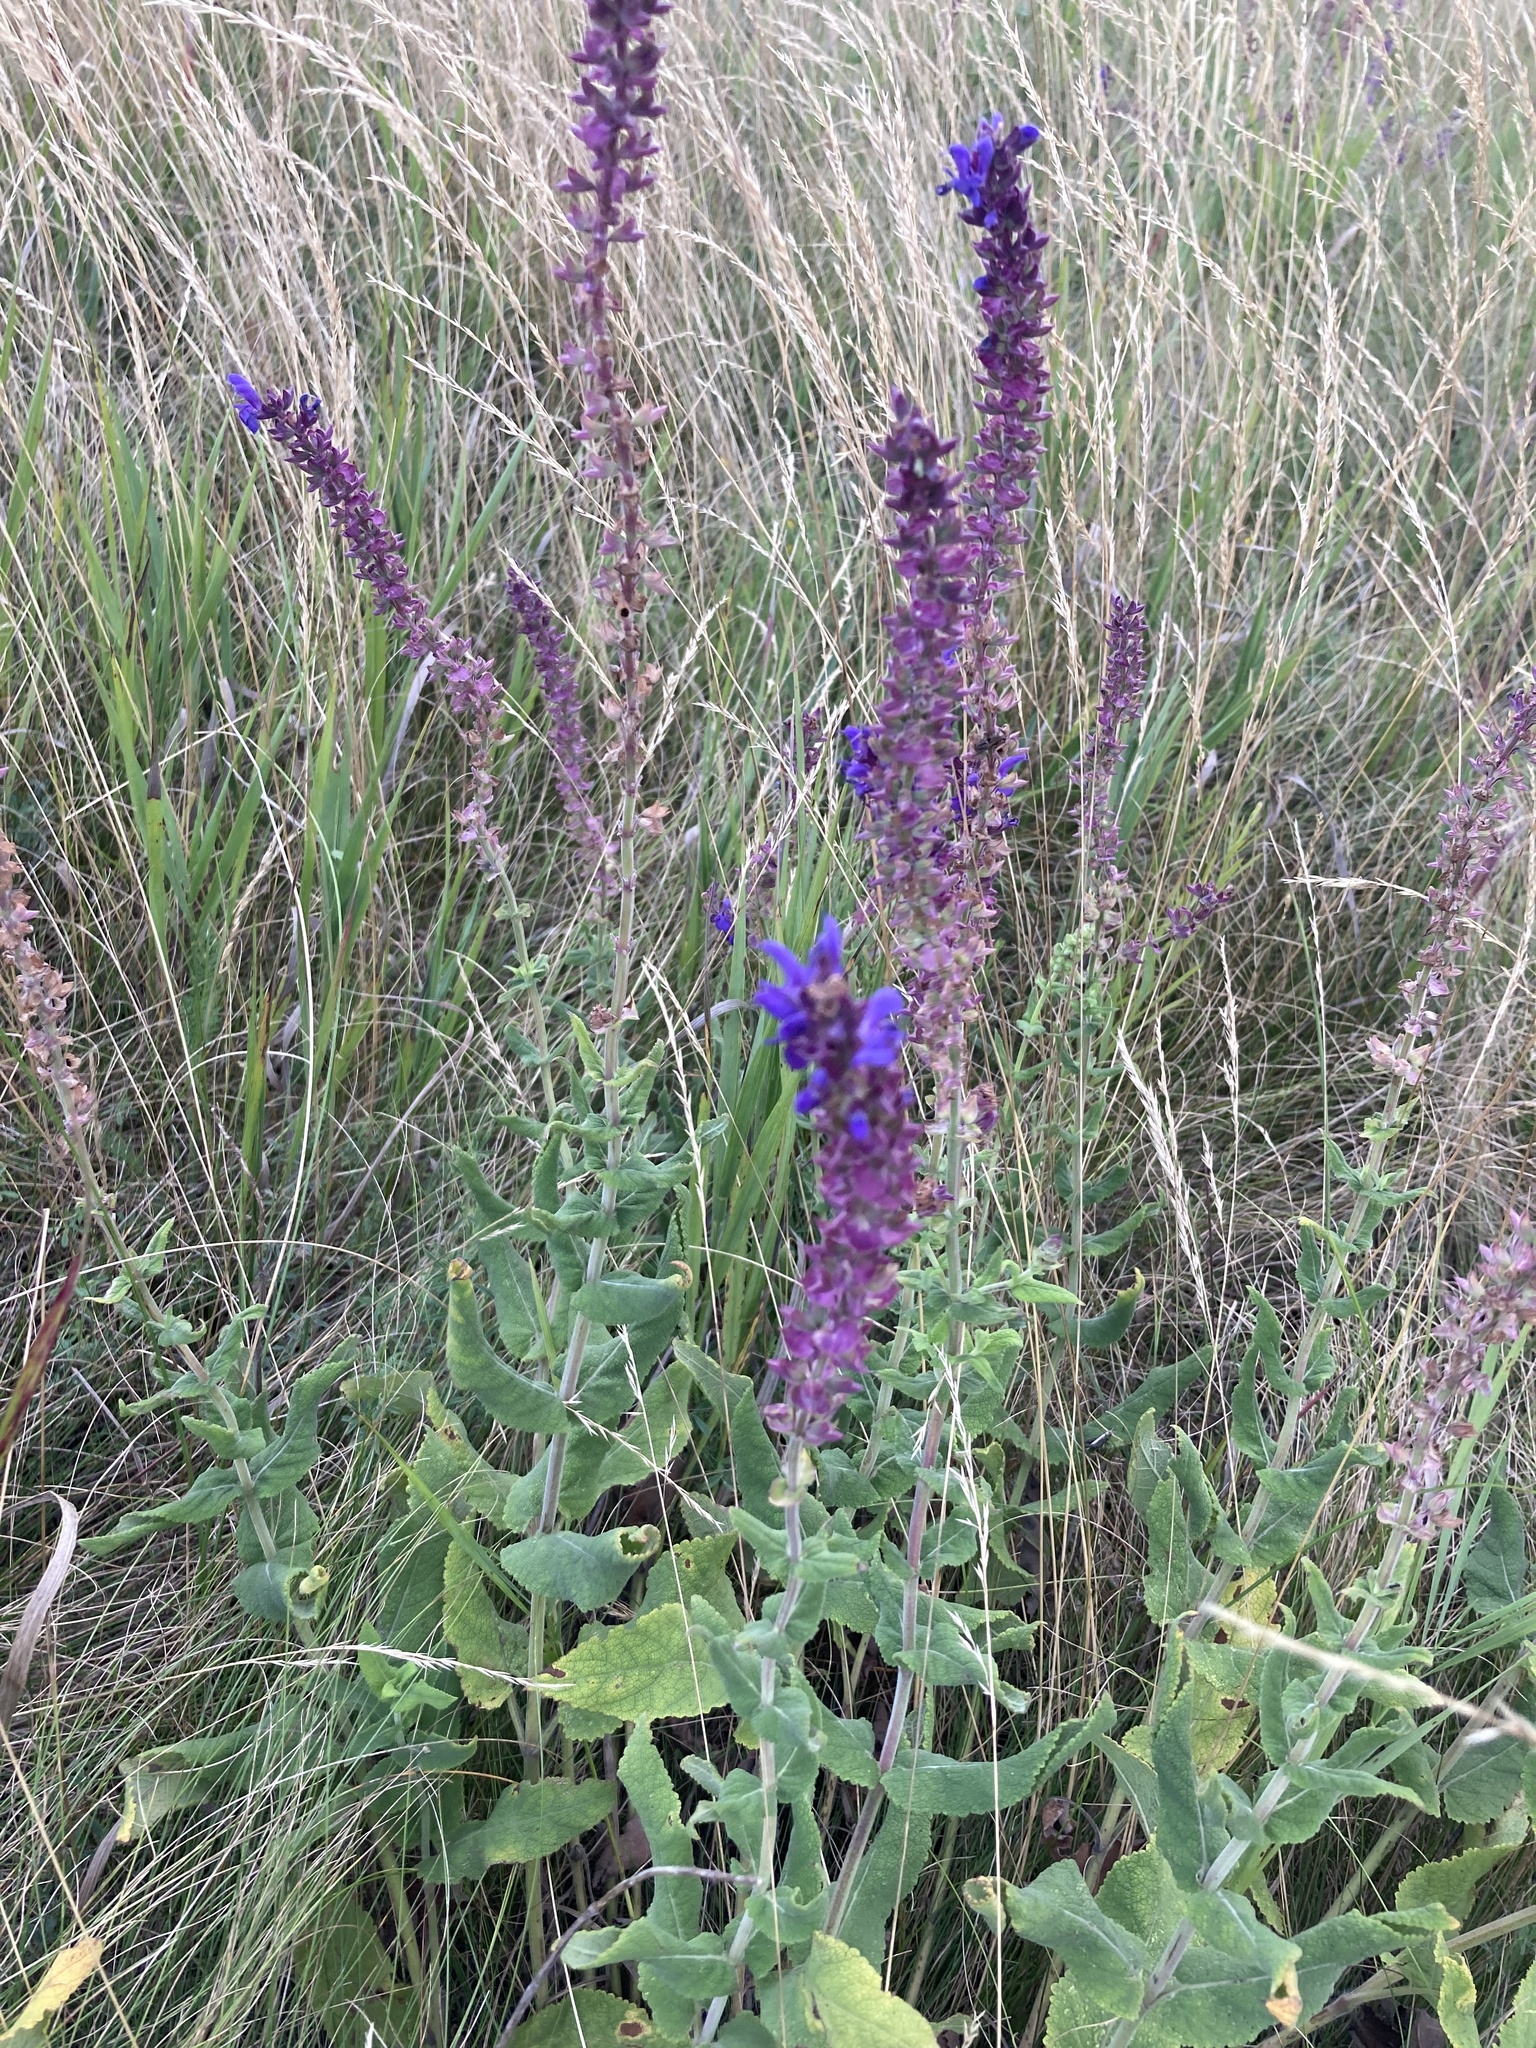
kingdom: Plantae
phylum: Tracheophyta
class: Magnoliopsida
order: Lamiales
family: Lamiaceae
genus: Salvia
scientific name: Salvia nemorosa
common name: Balkan clary
